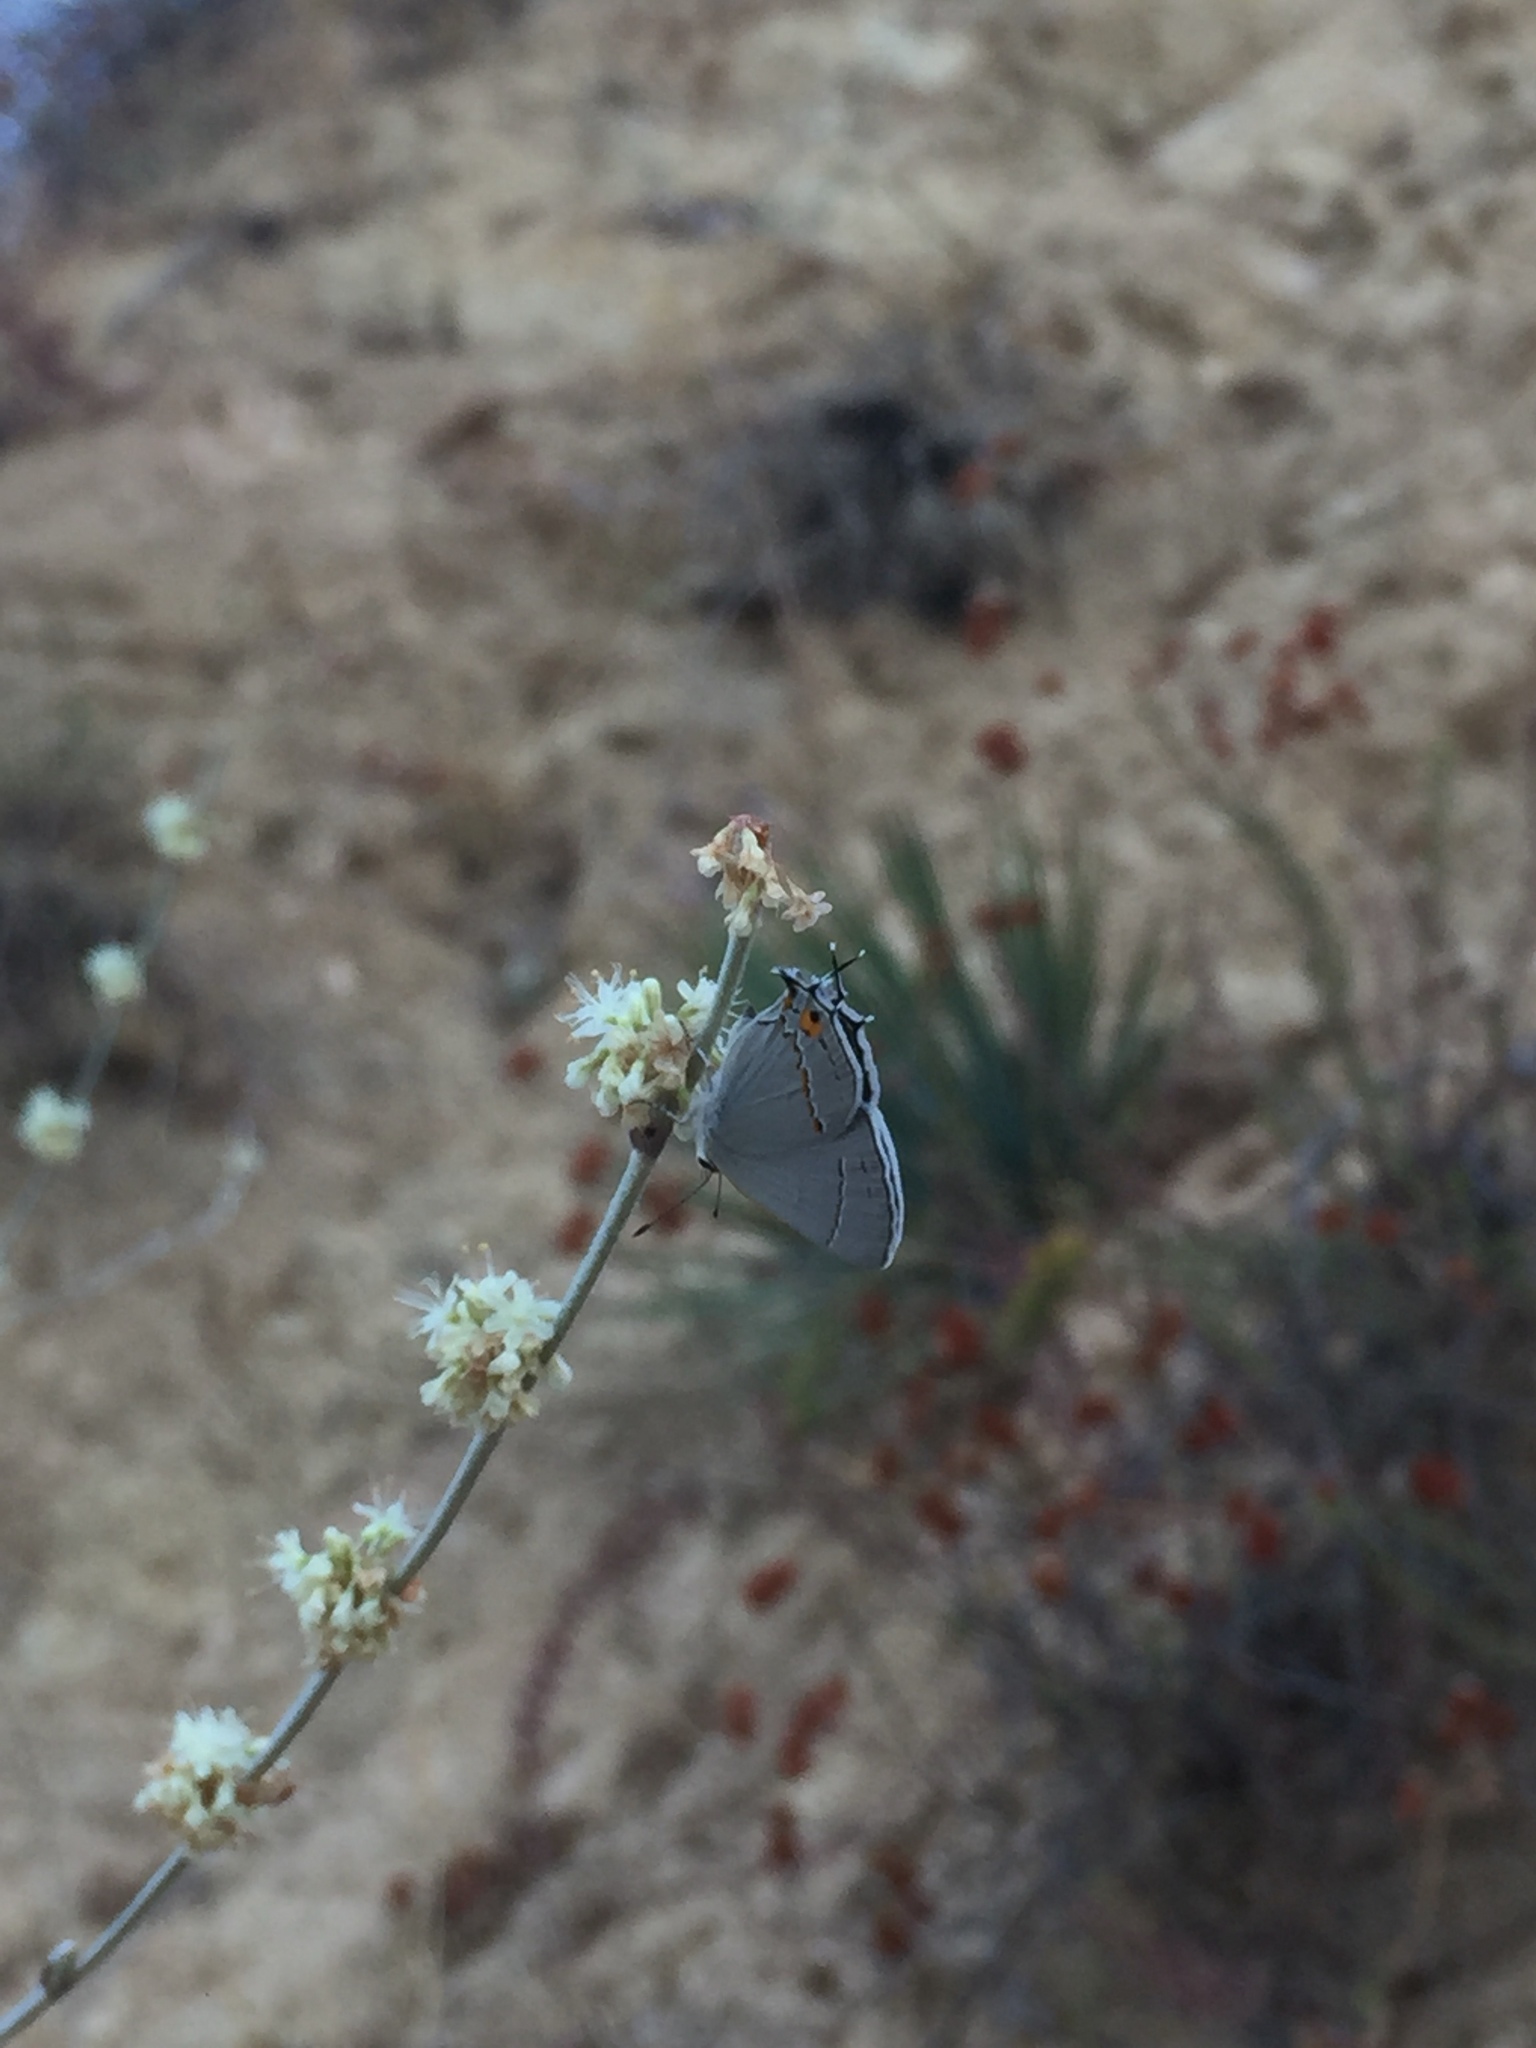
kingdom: Animalia
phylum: Arthropoda
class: Insecta
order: Lepidoptera
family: Lycaenidae
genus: Strymon
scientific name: Strymon melinus
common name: Gray hairstreak
